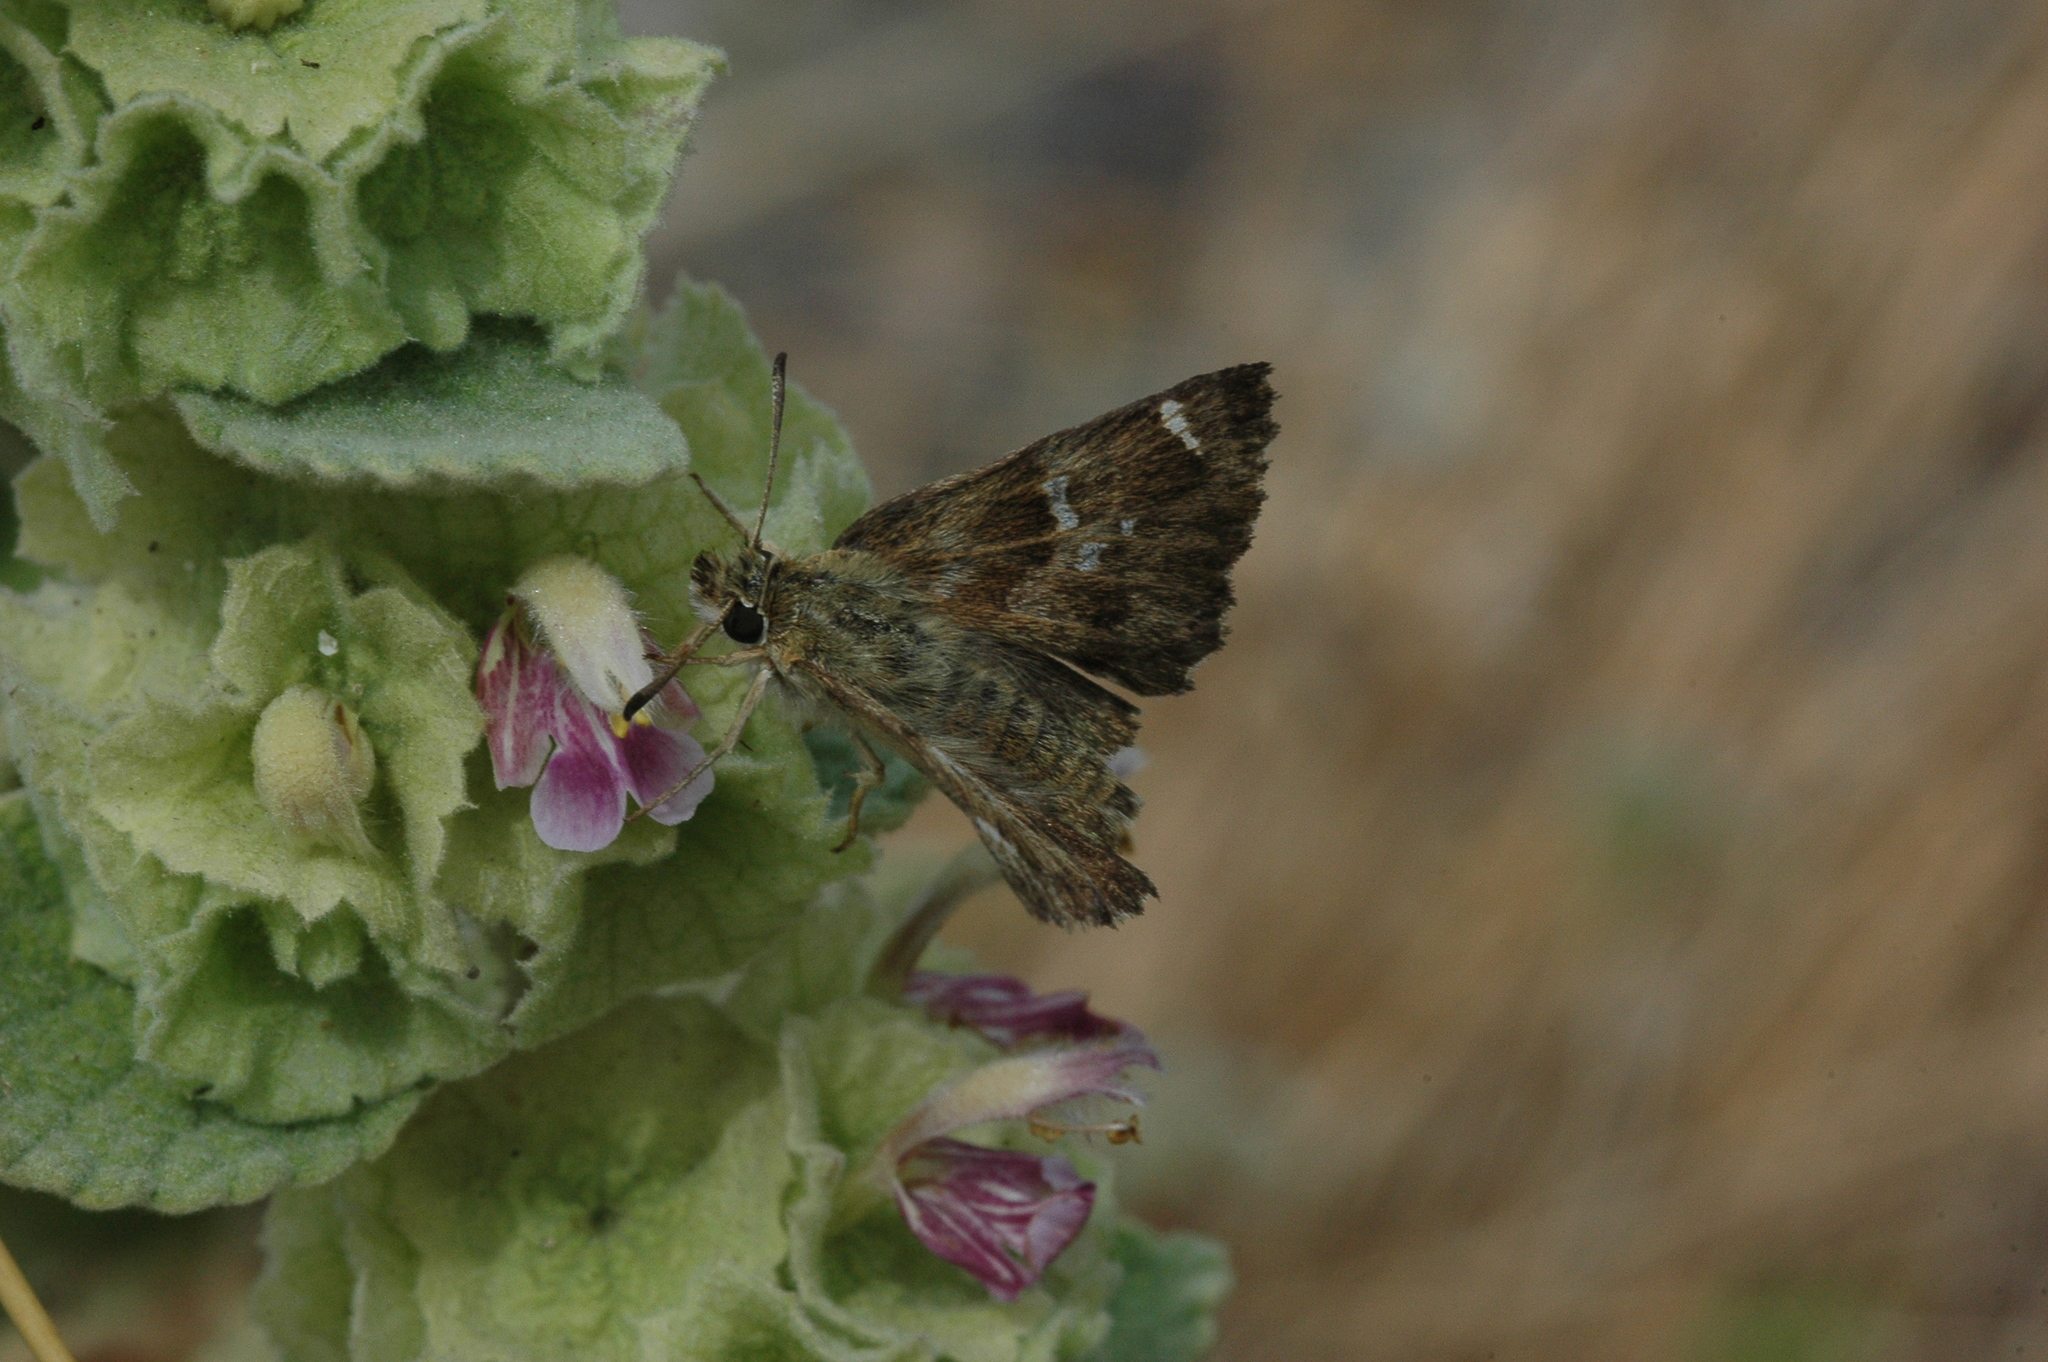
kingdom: Animalia
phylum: Arthropoda
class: Insecta
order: Lepidoptera
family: Hesperiidae
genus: Syrichtus
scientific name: Syrichtus
